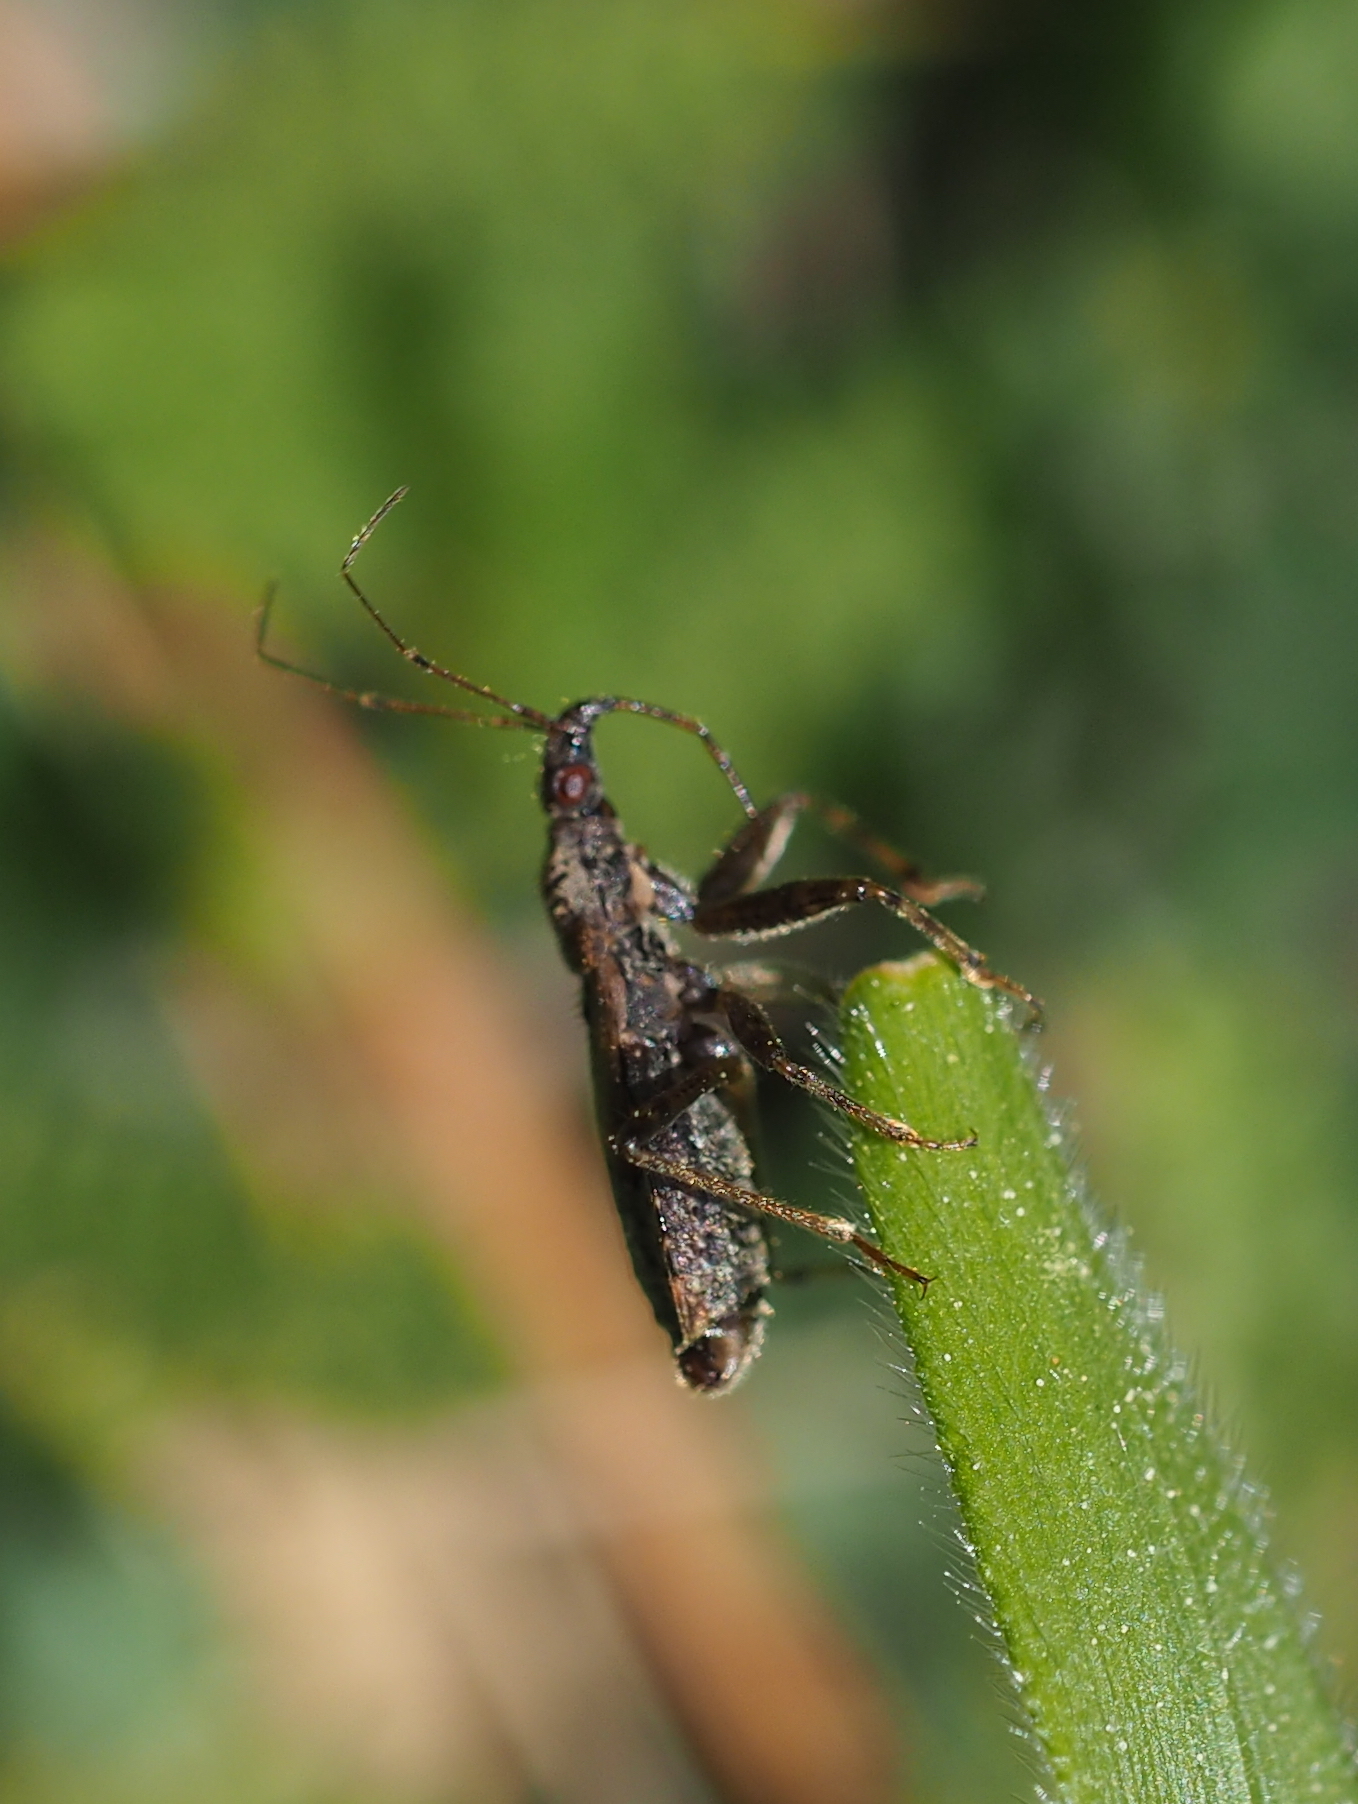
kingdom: Animalia
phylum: Arthropoda
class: Insecta
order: Hemiptera
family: Nabidae
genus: Himacerus
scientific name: Himacerus mirmicoides
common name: Ant damsel bug
